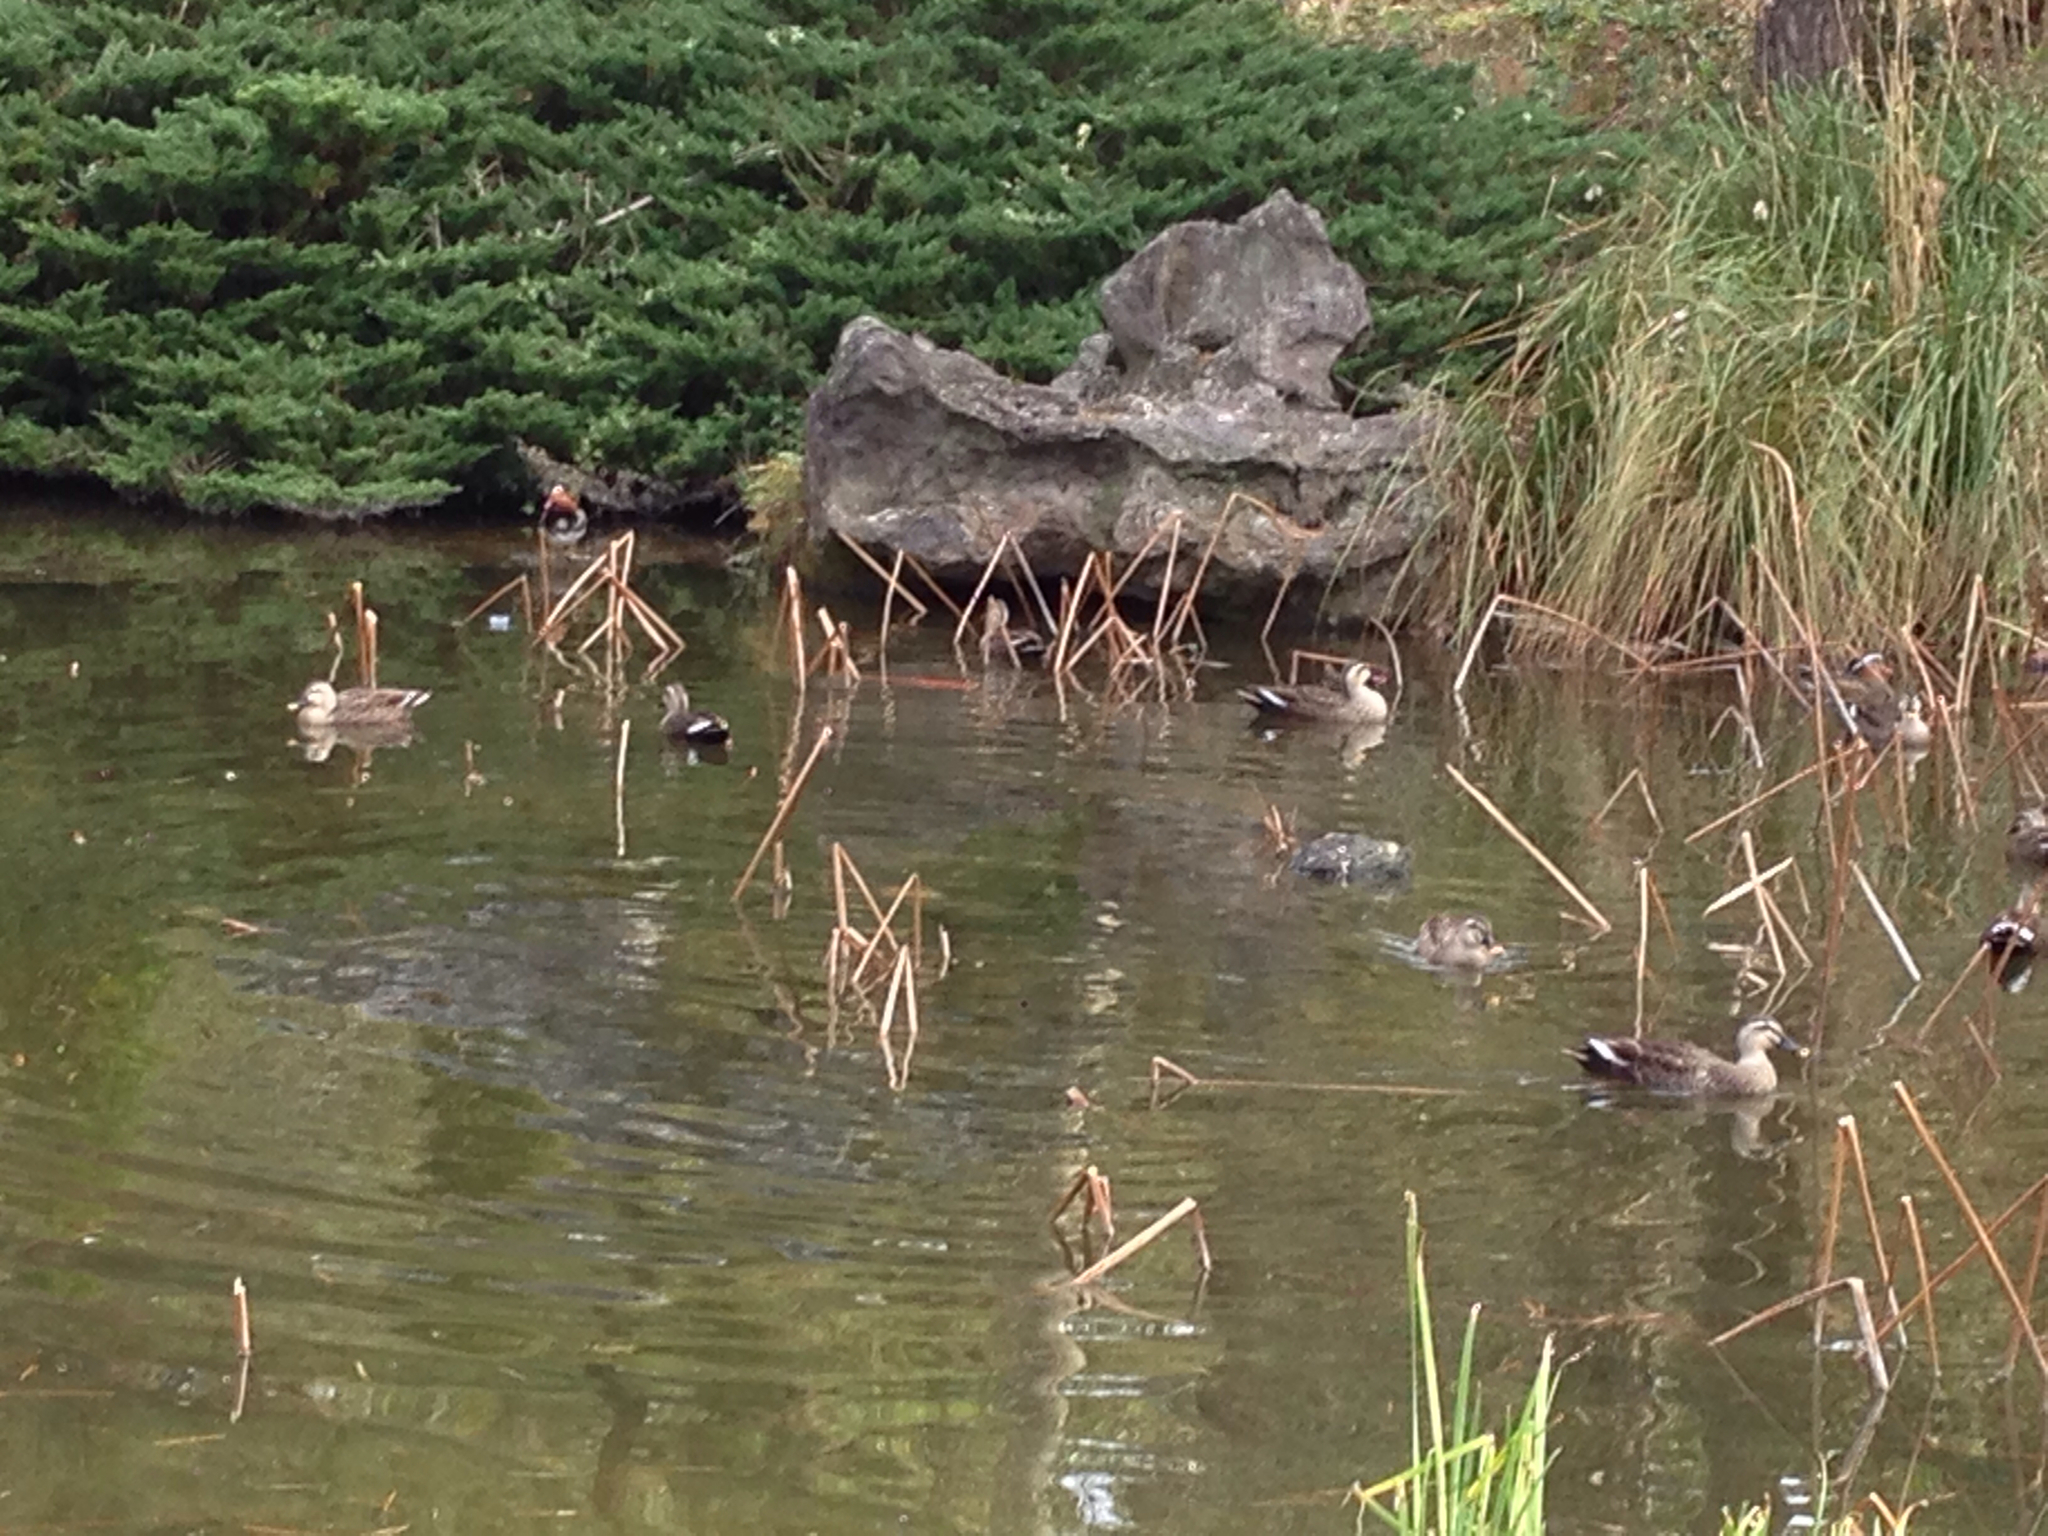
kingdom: Animalia
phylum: Chordata
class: Aves
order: Anseriformes
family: Anatidae
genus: Anas
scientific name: Anas zonorhyncha
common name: Eastern spot-billed duck
